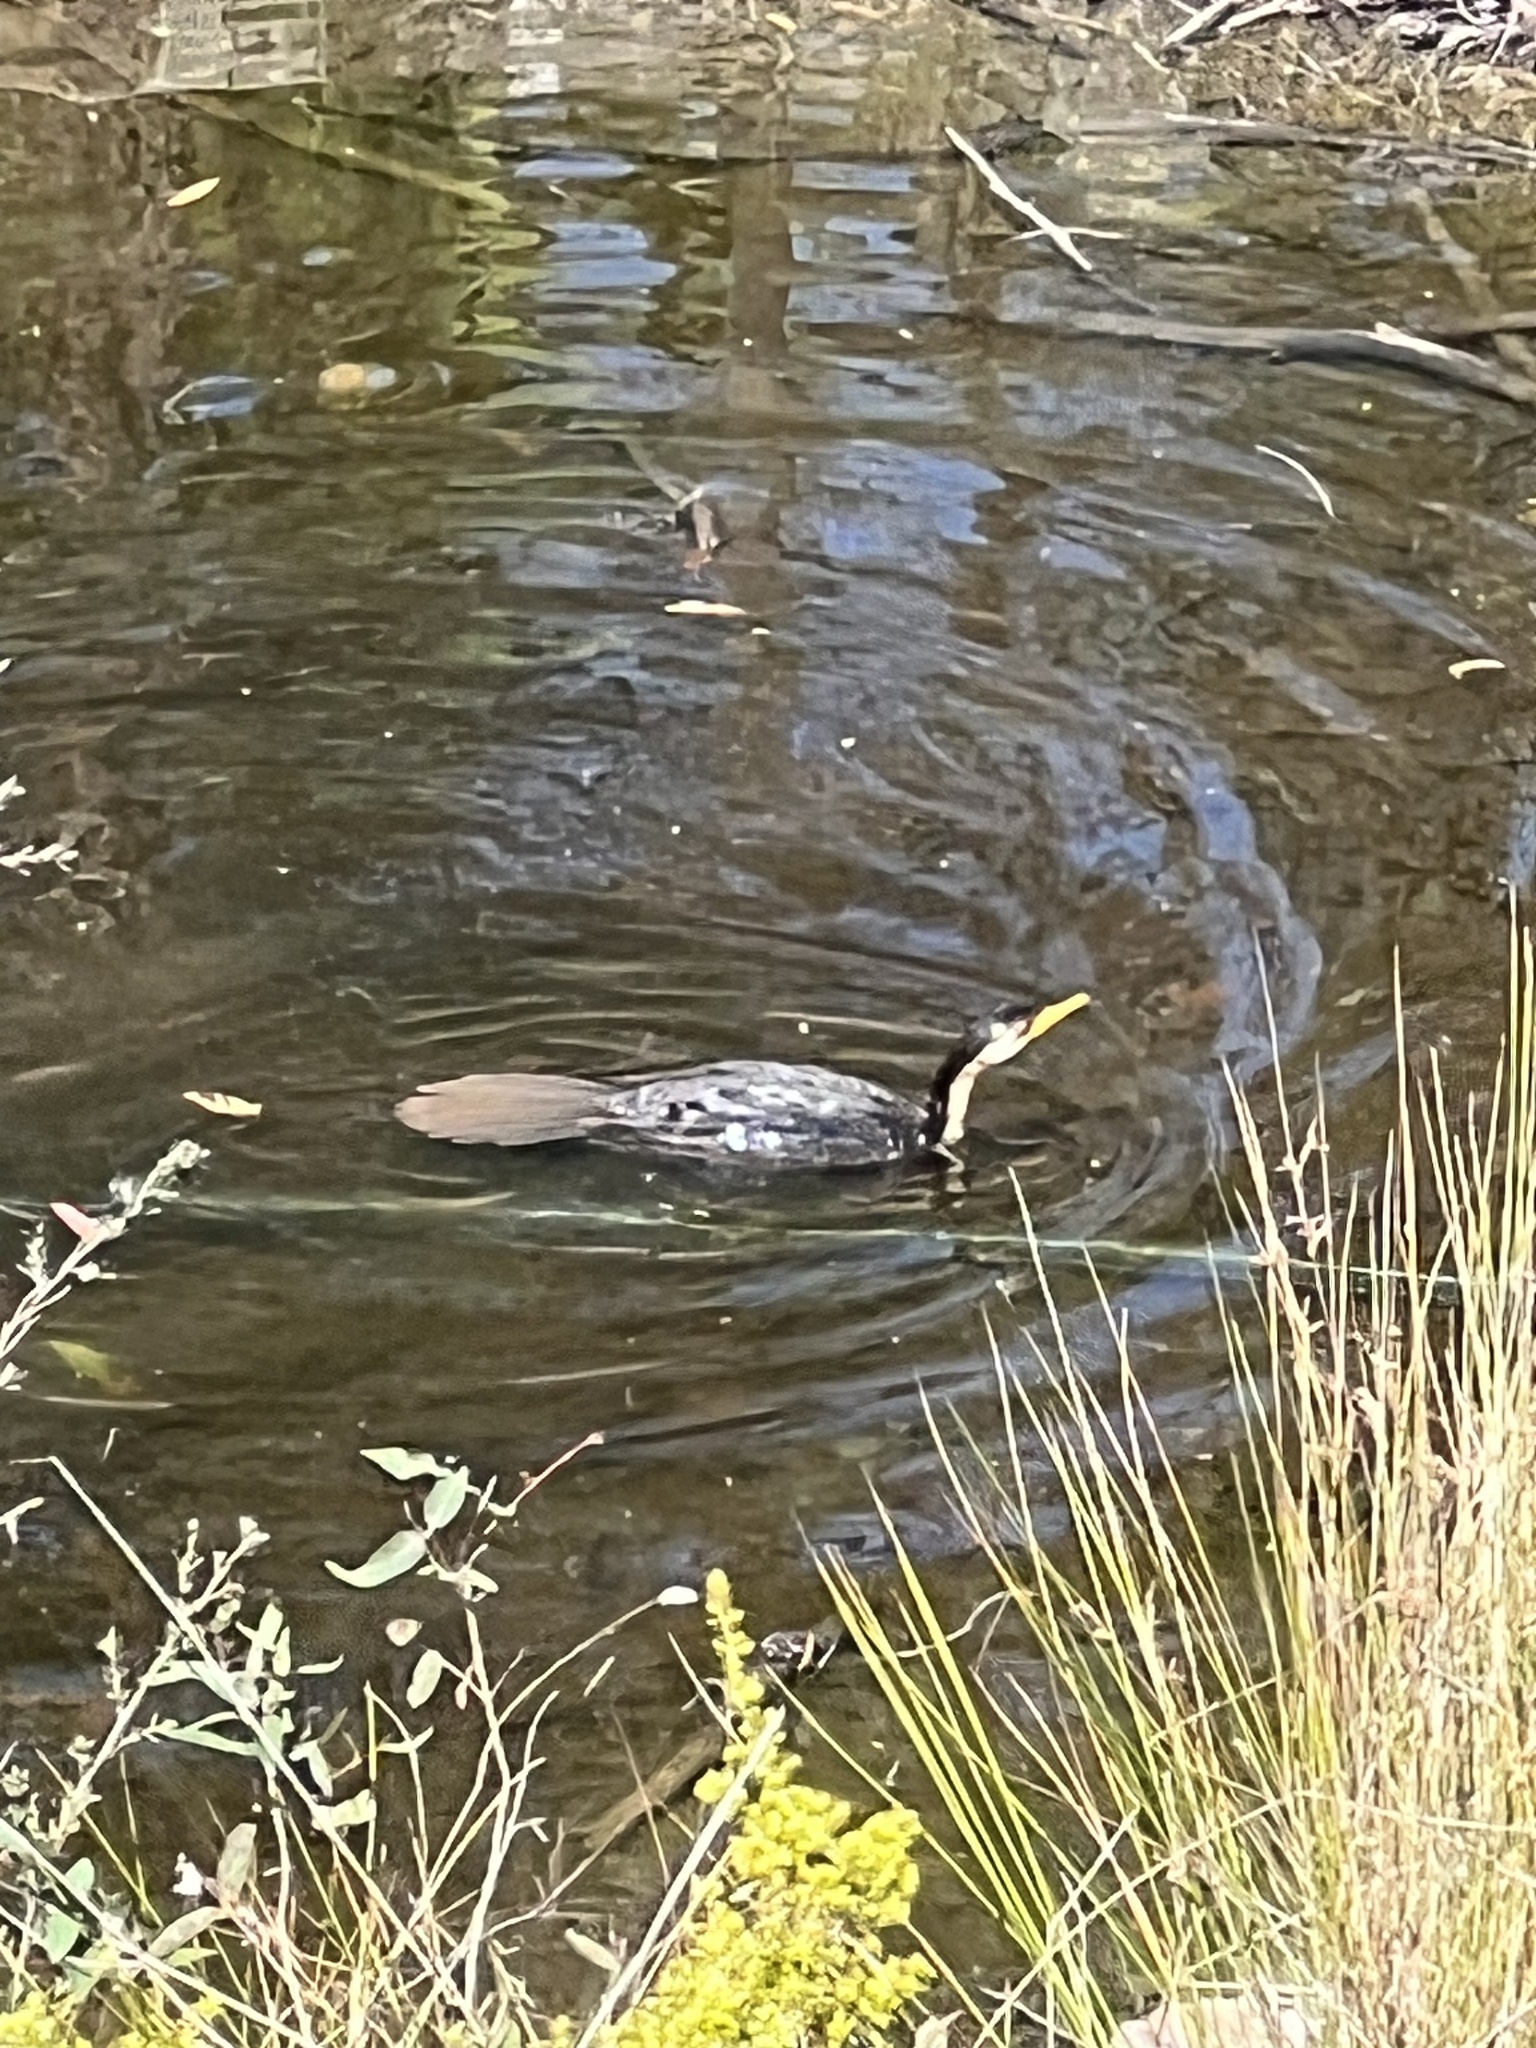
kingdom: Animalia
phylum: Chordata
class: Aves
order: Suliformes
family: Phalacrocoracidae
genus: Microcarbo
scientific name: Microcarbo melanoleucos
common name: Little pied cormorant
